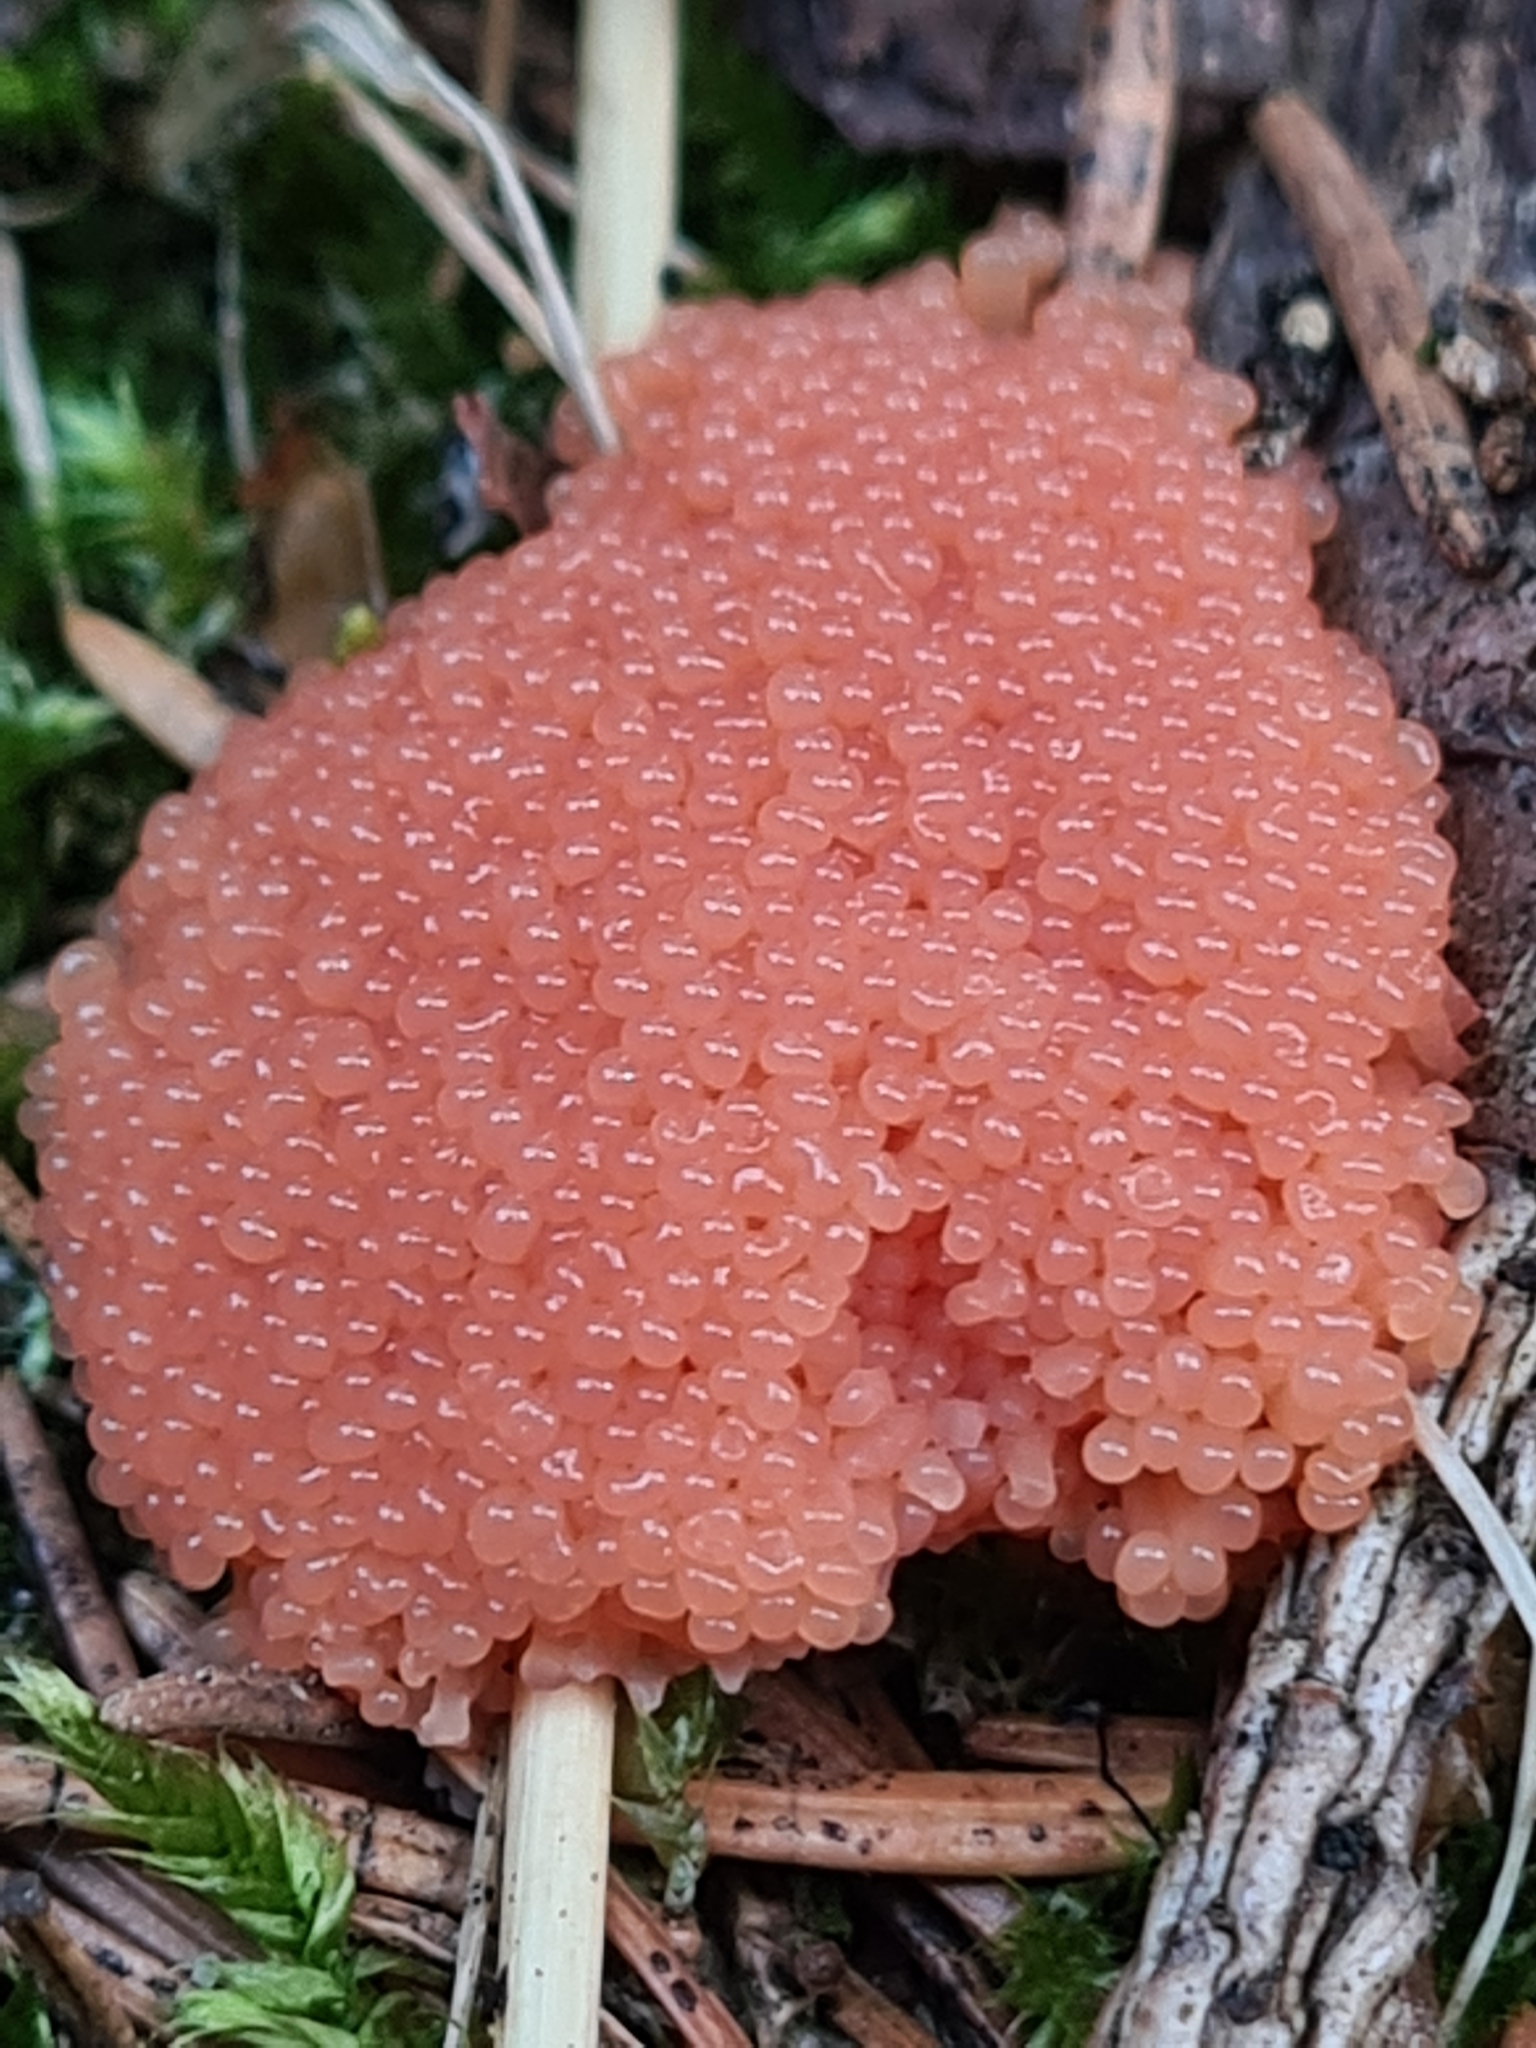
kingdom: Protozoa
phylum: Mycetozoa
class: Myxomycetes
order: Cribrariales
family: Tubiferaceae
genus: Tubifera
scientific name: Tubifera ferruginosa
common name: Red raspberry slime mold
